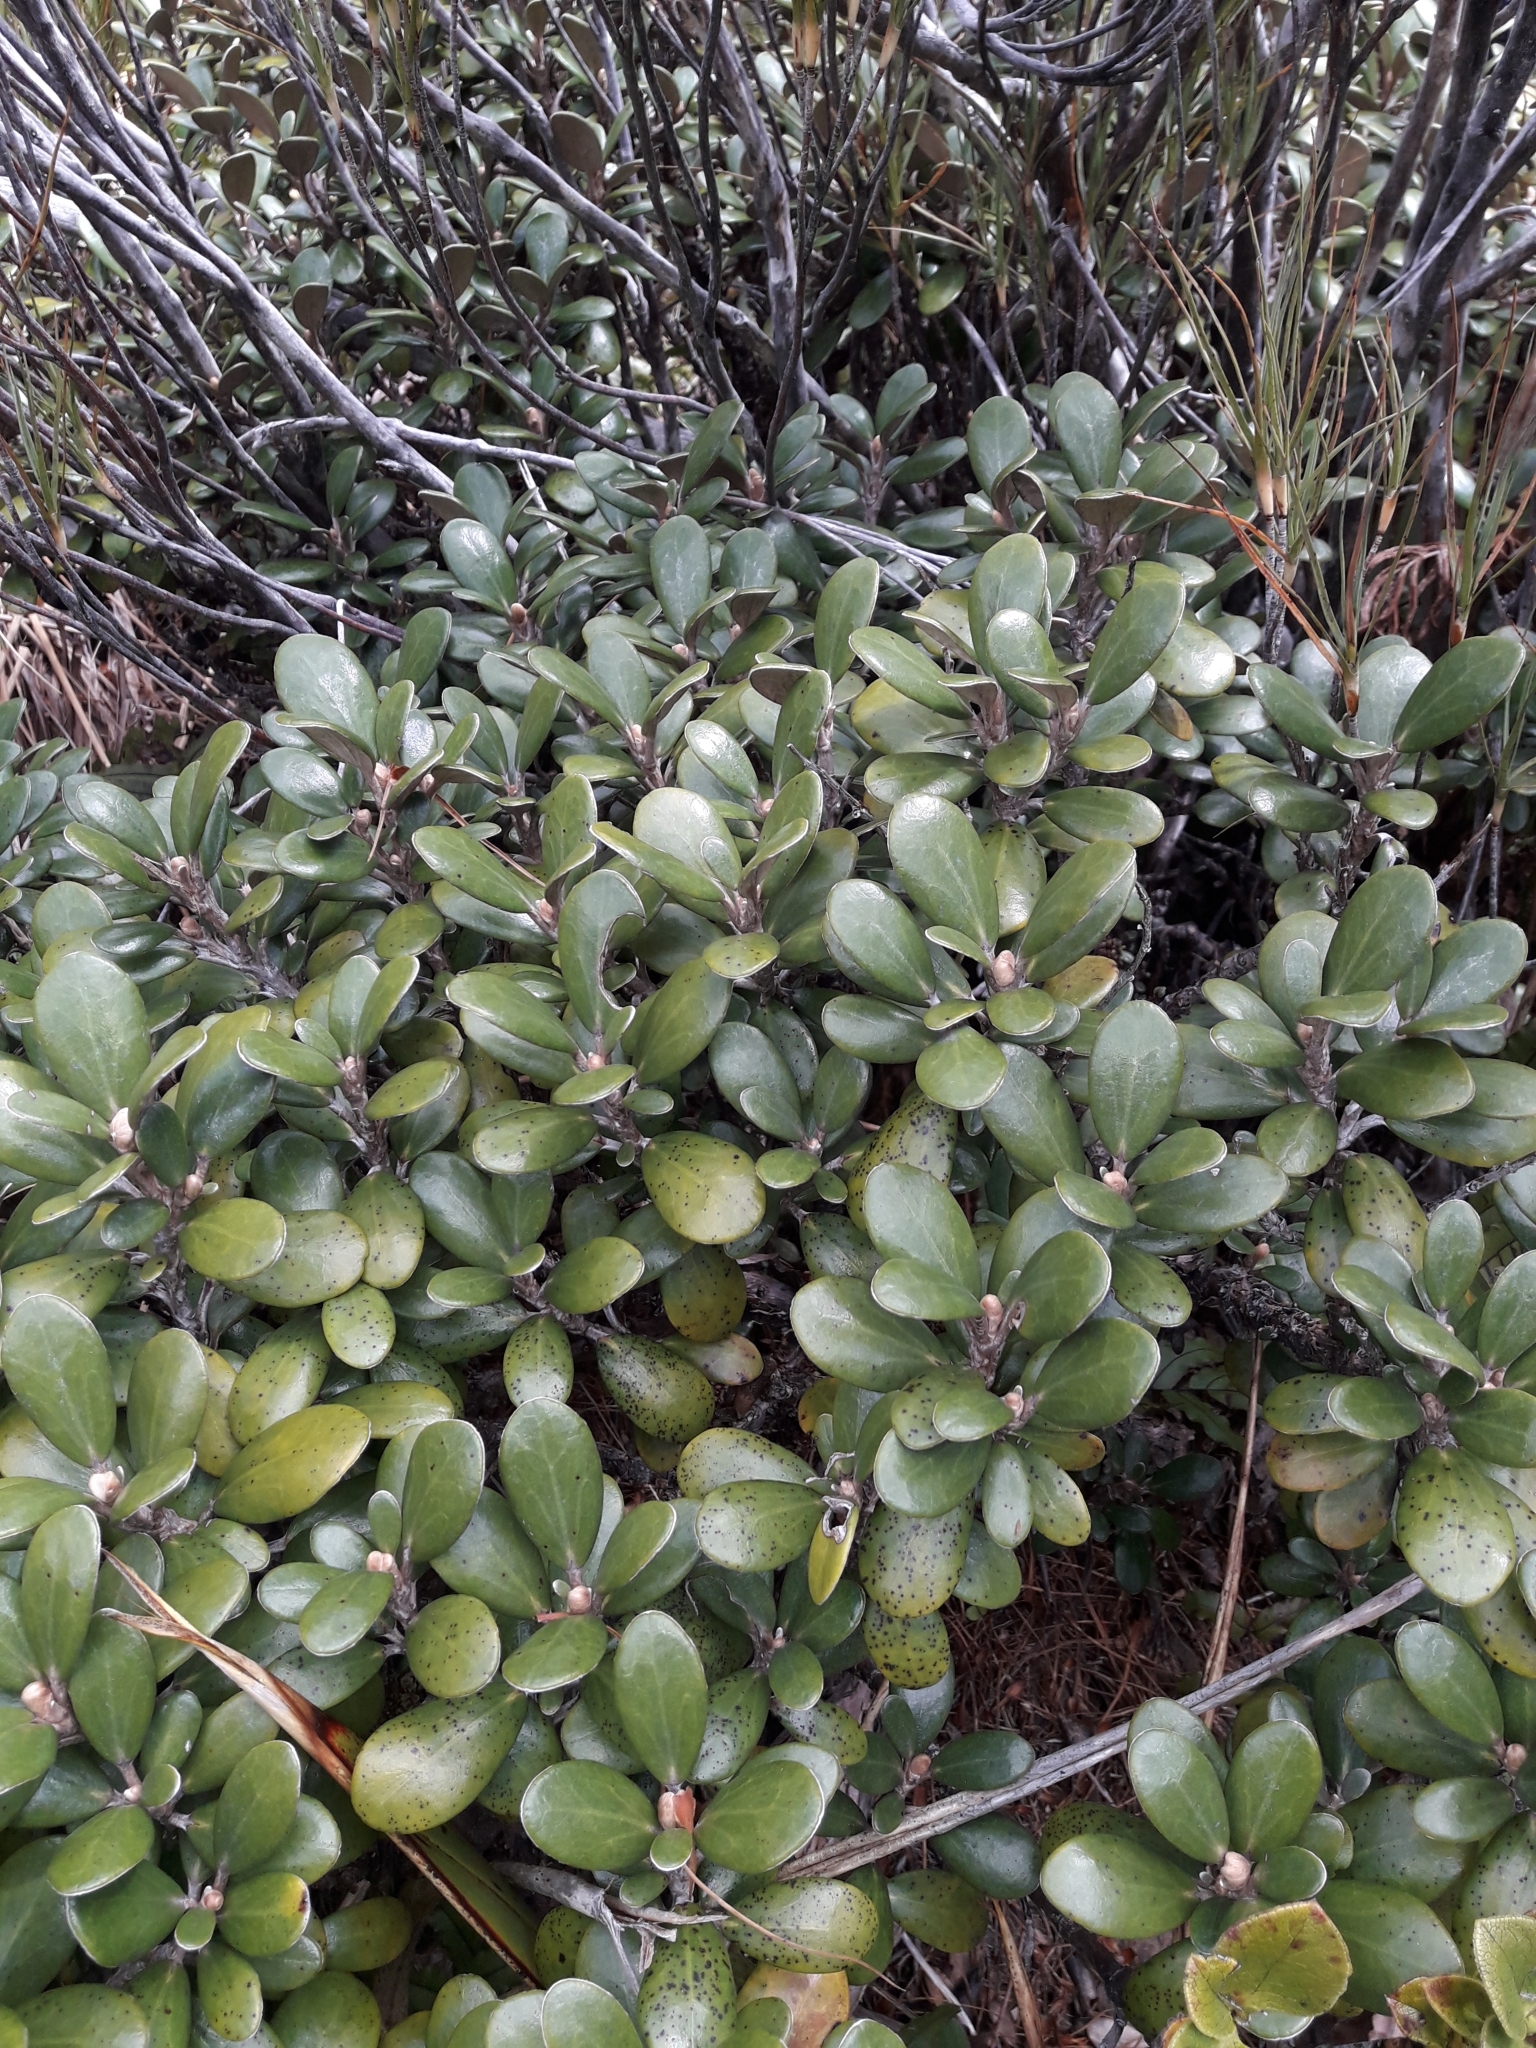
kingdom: Plantae
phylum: Tracheophyta
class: Magnoliopsida
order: Asterales
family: Asteraceae
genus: Brachyglottis
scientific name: Brachyglottis bidwillii
